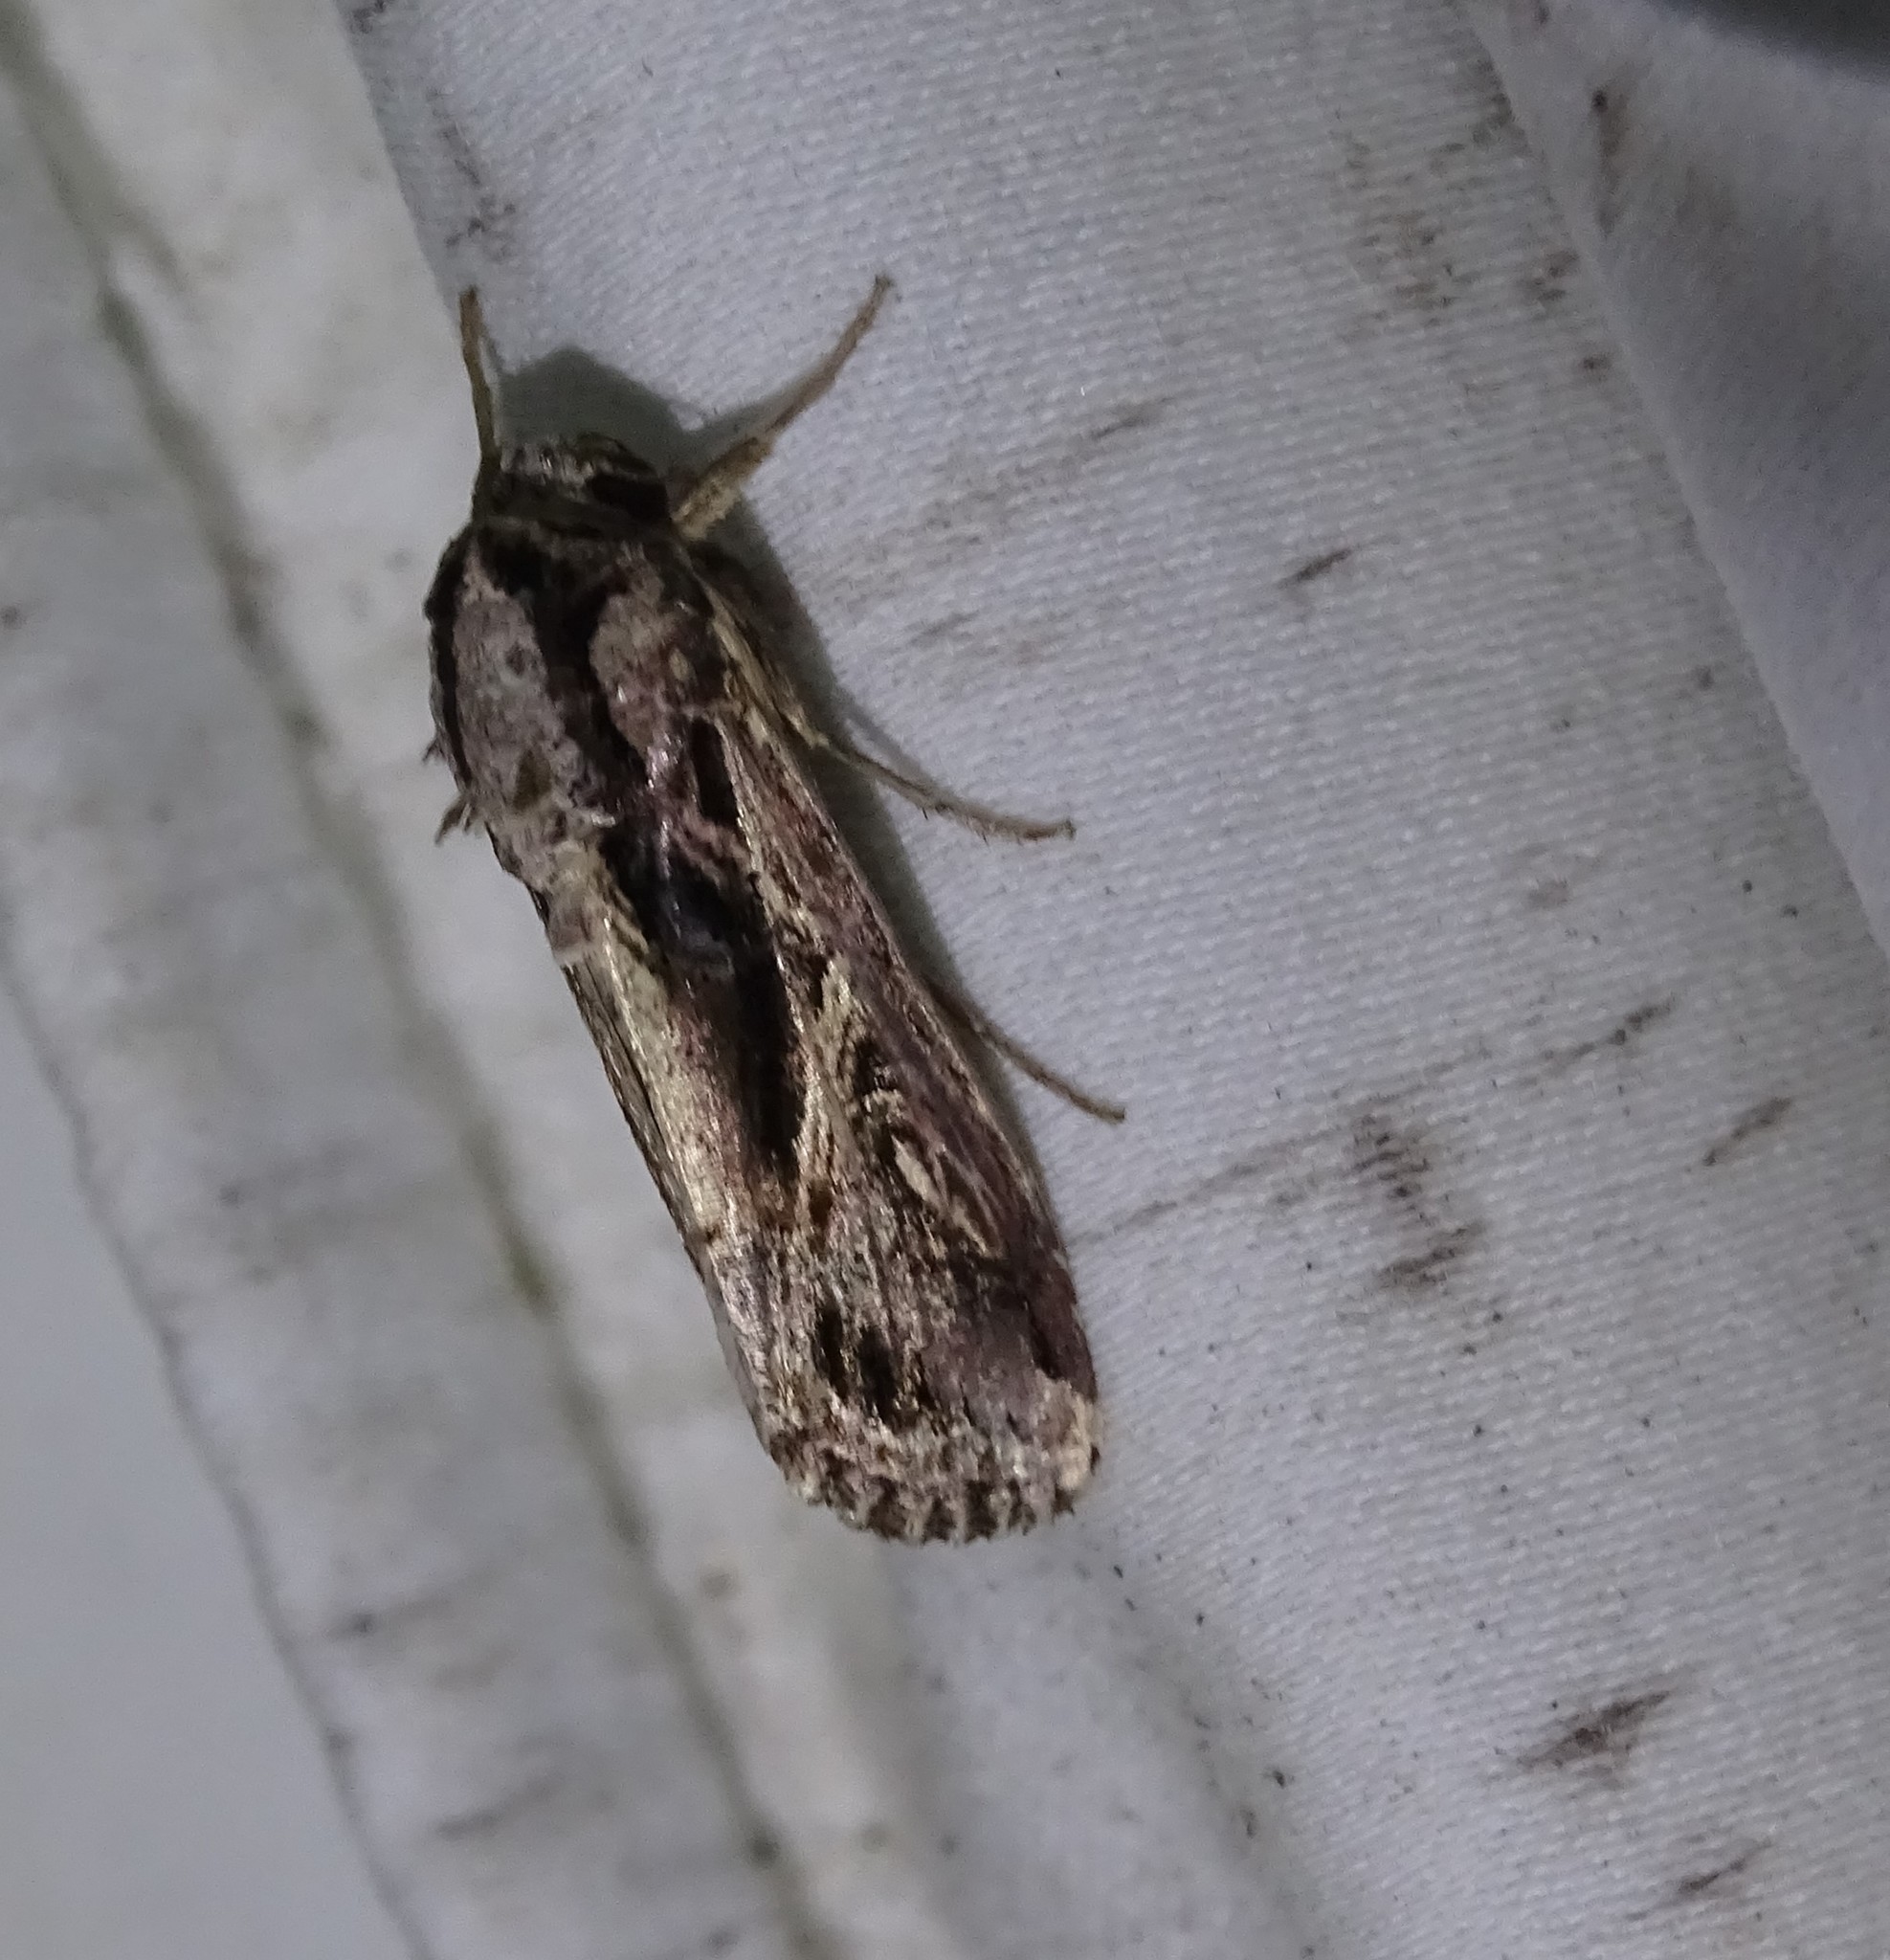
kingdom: Animalia
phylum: Arthropoda
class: Insecta
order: Lepidoptera
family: Noctuidae
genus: Spodoptera
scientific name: Spodoptera dolichos
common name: Sweetpotato armyworm
